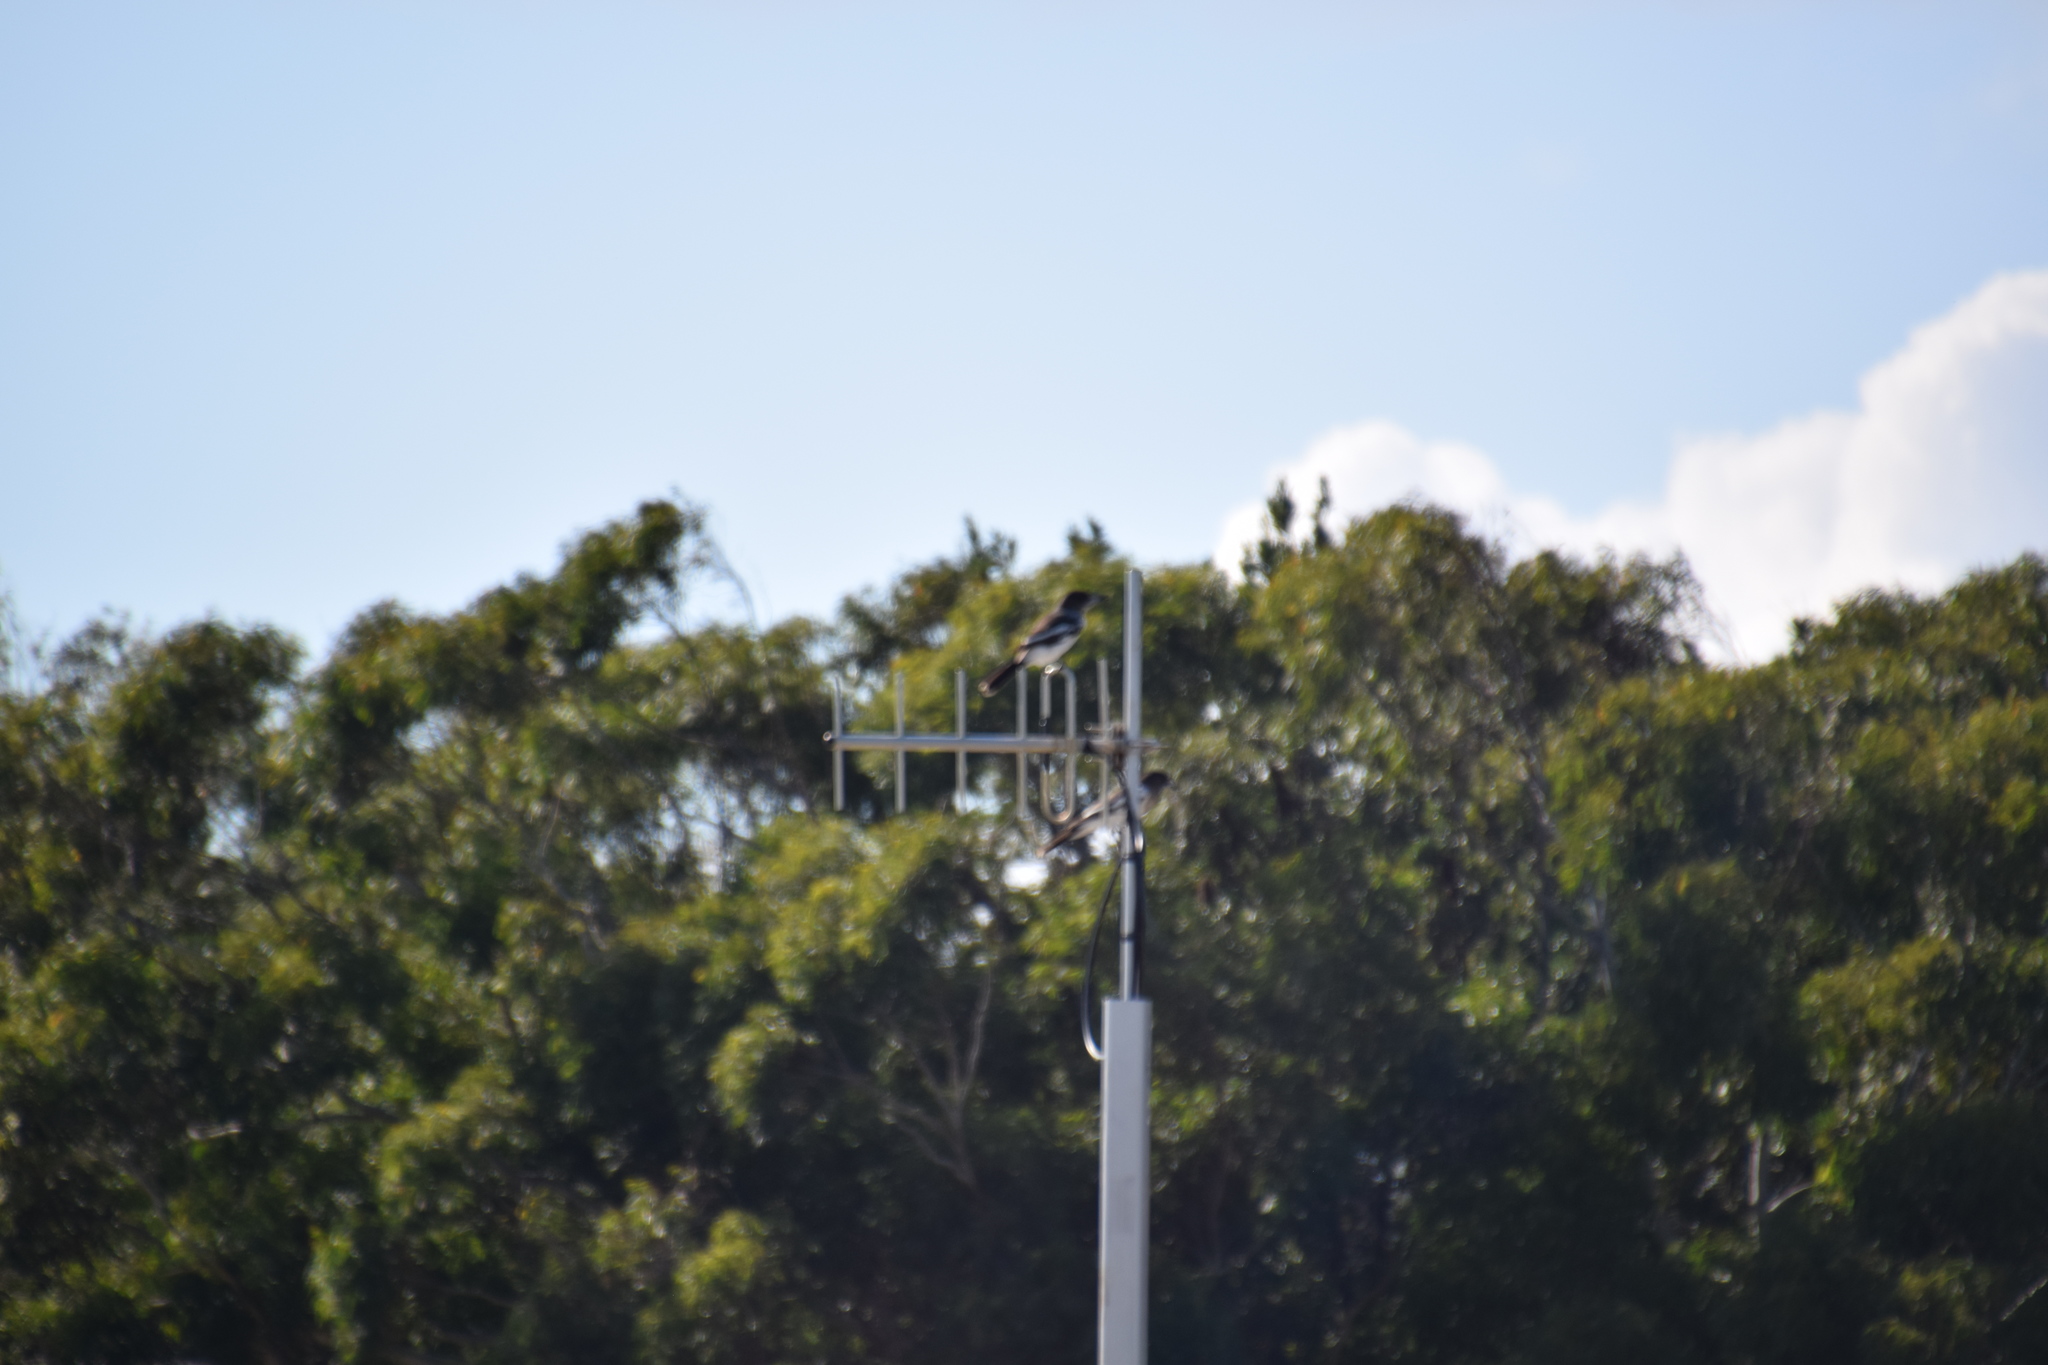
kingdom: Animalia
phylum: Chordata
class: Aves
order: Passeriformes
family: Cracticidae
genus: Cracticus
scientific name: Cracticus torquatus
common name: Grey butcherbird
